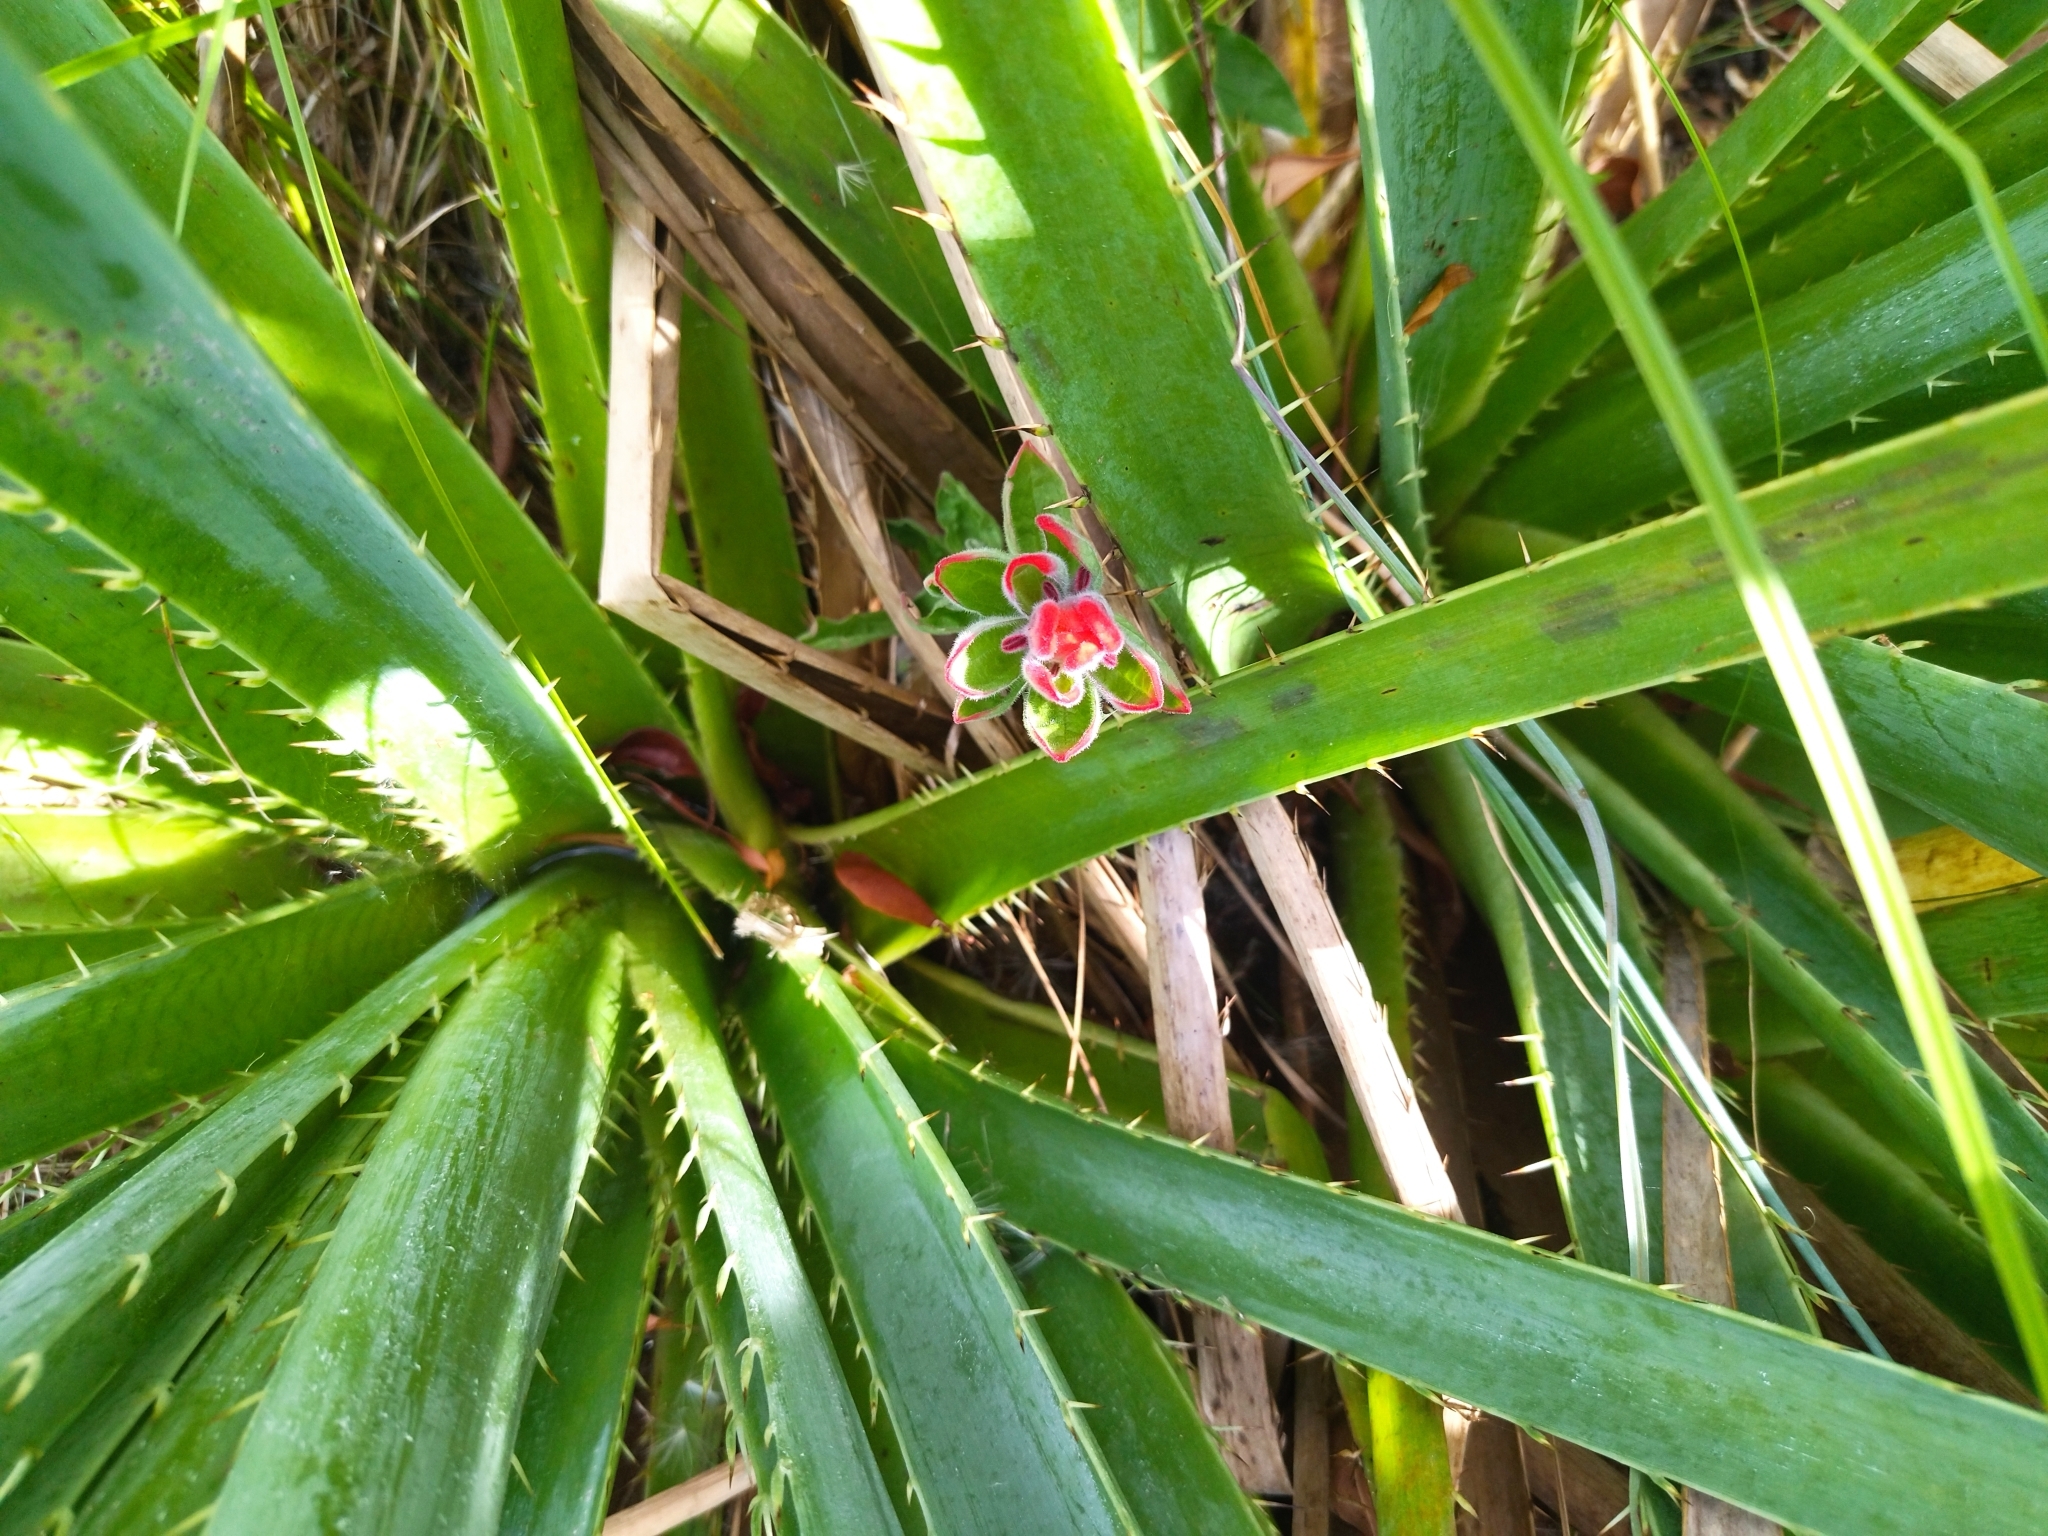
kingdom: Plantae
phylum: Tracheophyta
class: Magnoliopsida
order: Lamiales
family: Orobanchaceae
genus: Castilleja
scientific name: Castilleja arvensis
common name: Indian paintbrush
